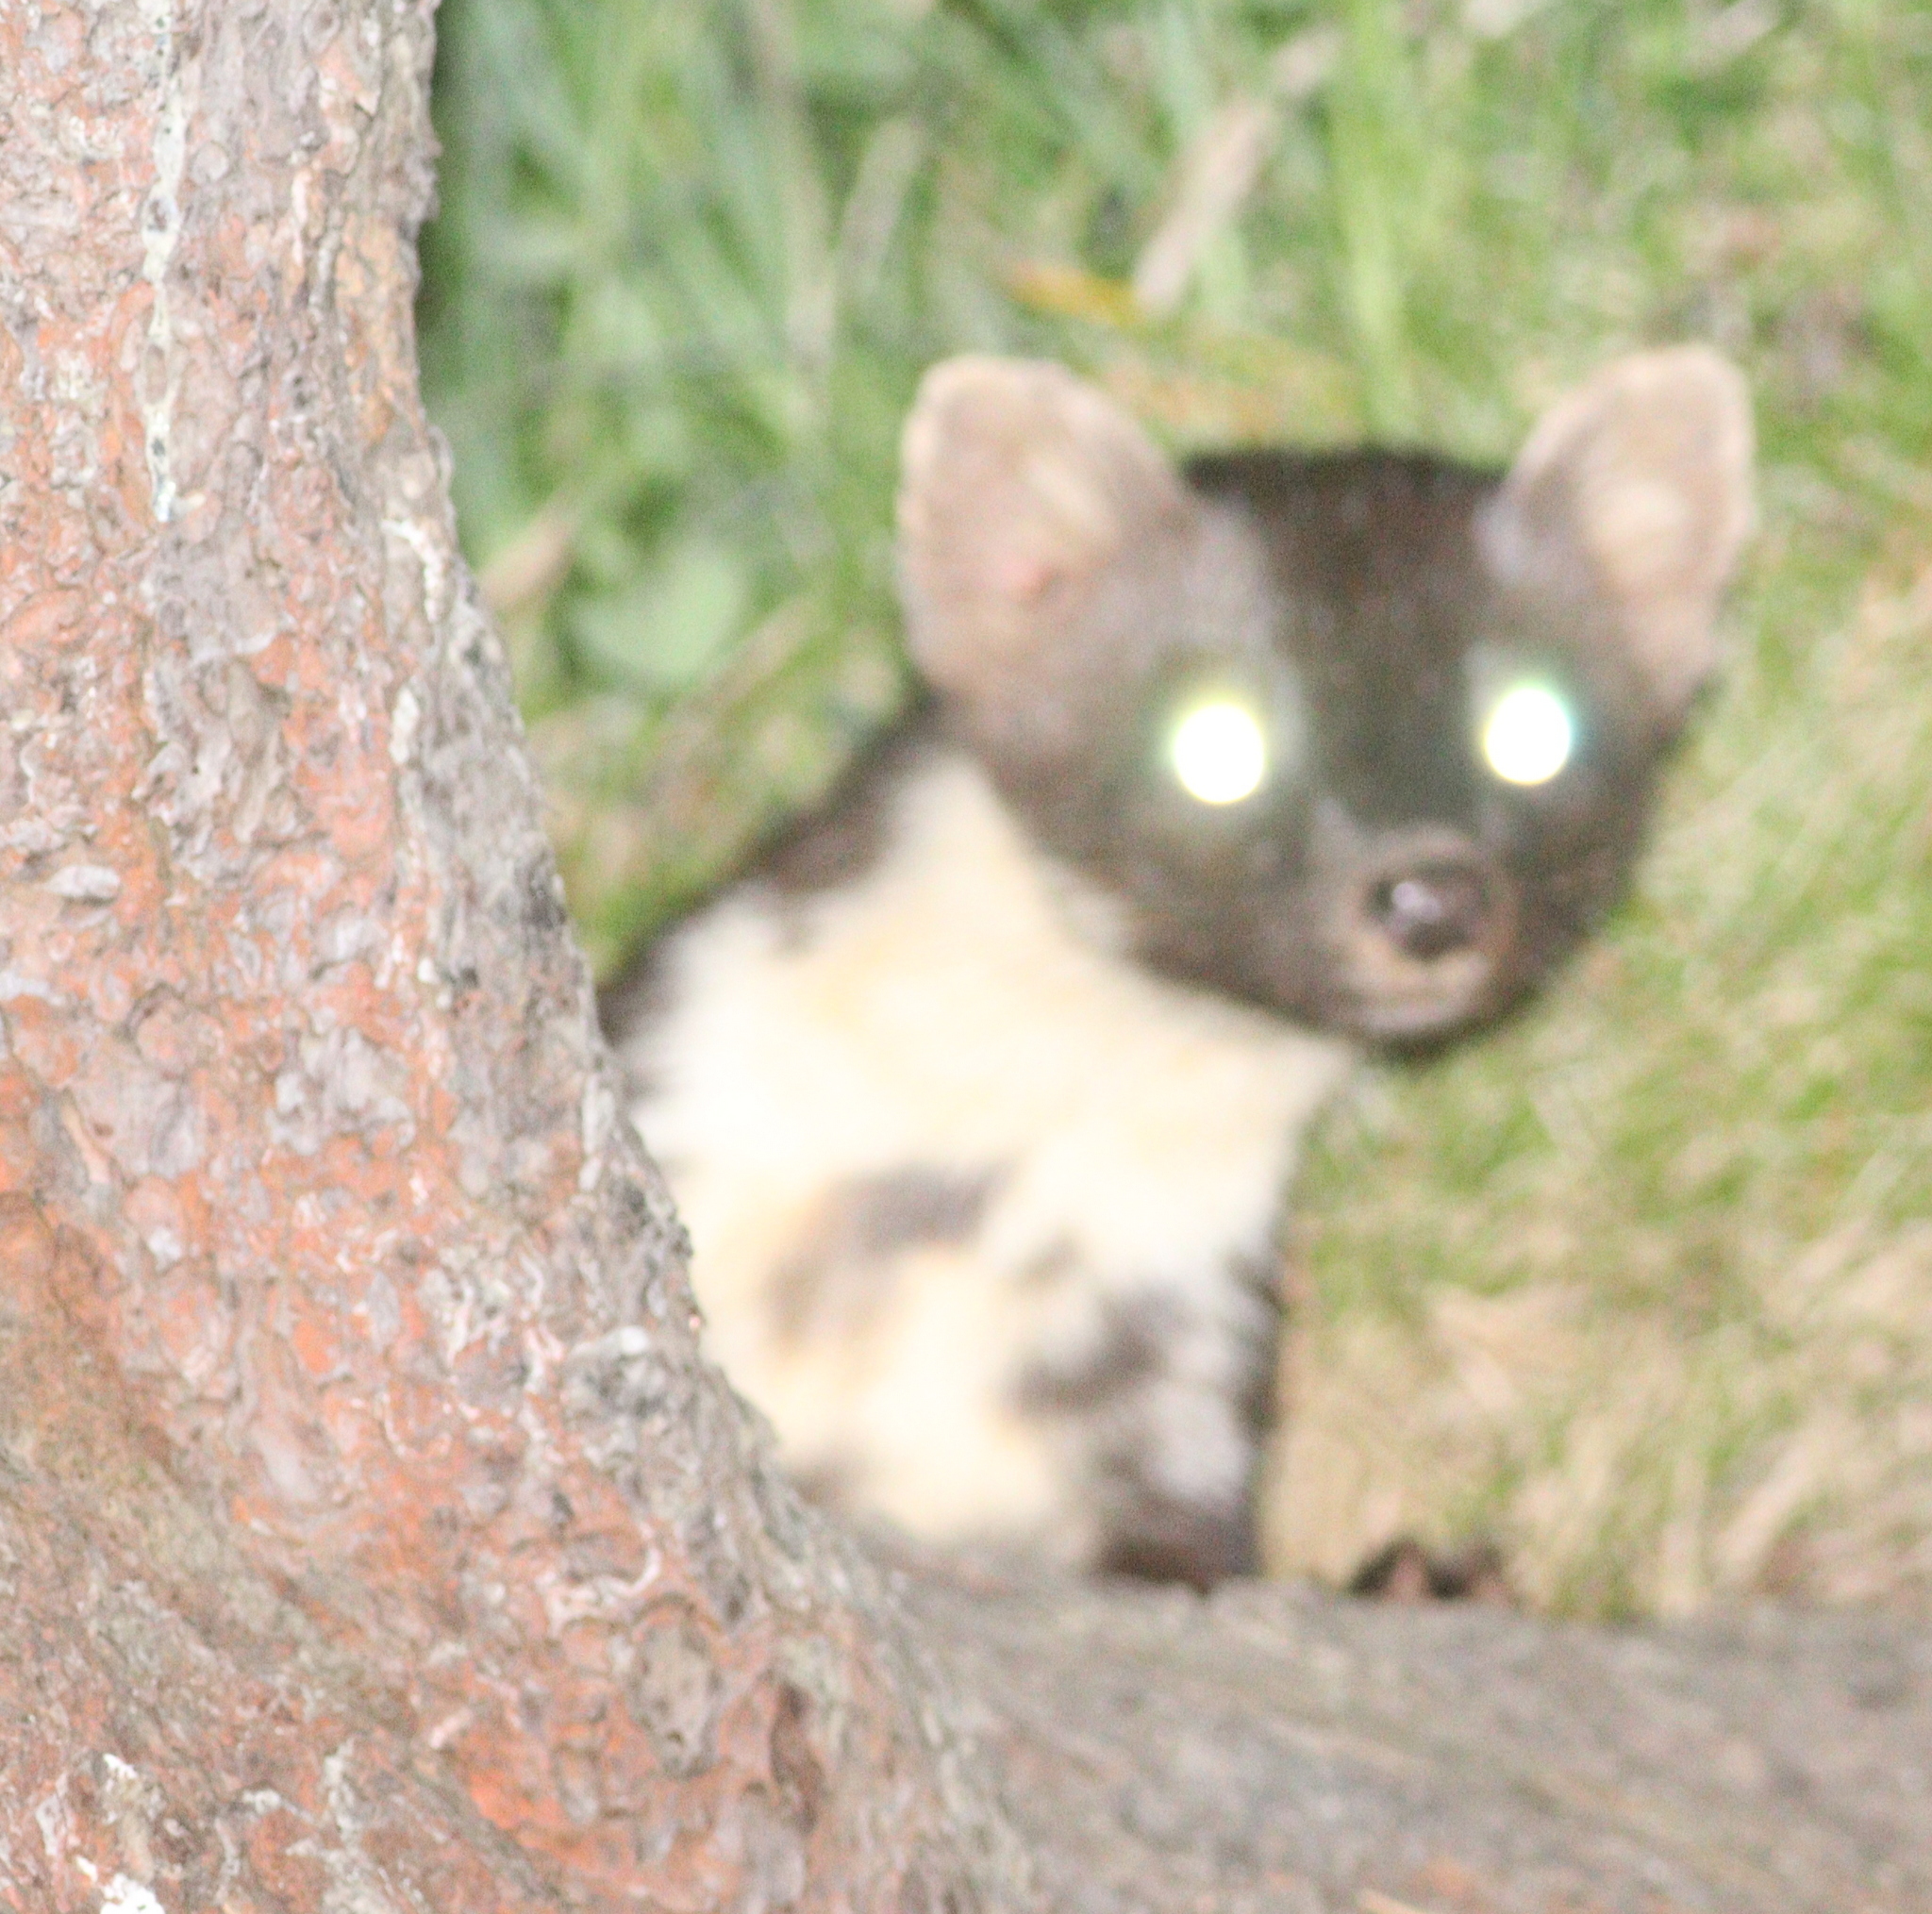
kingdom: Animalia
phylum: Chordata
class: Mammalia
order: Carnivora
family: Mustelidae
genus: Martes
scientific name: Martes foina
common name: Beech marten
